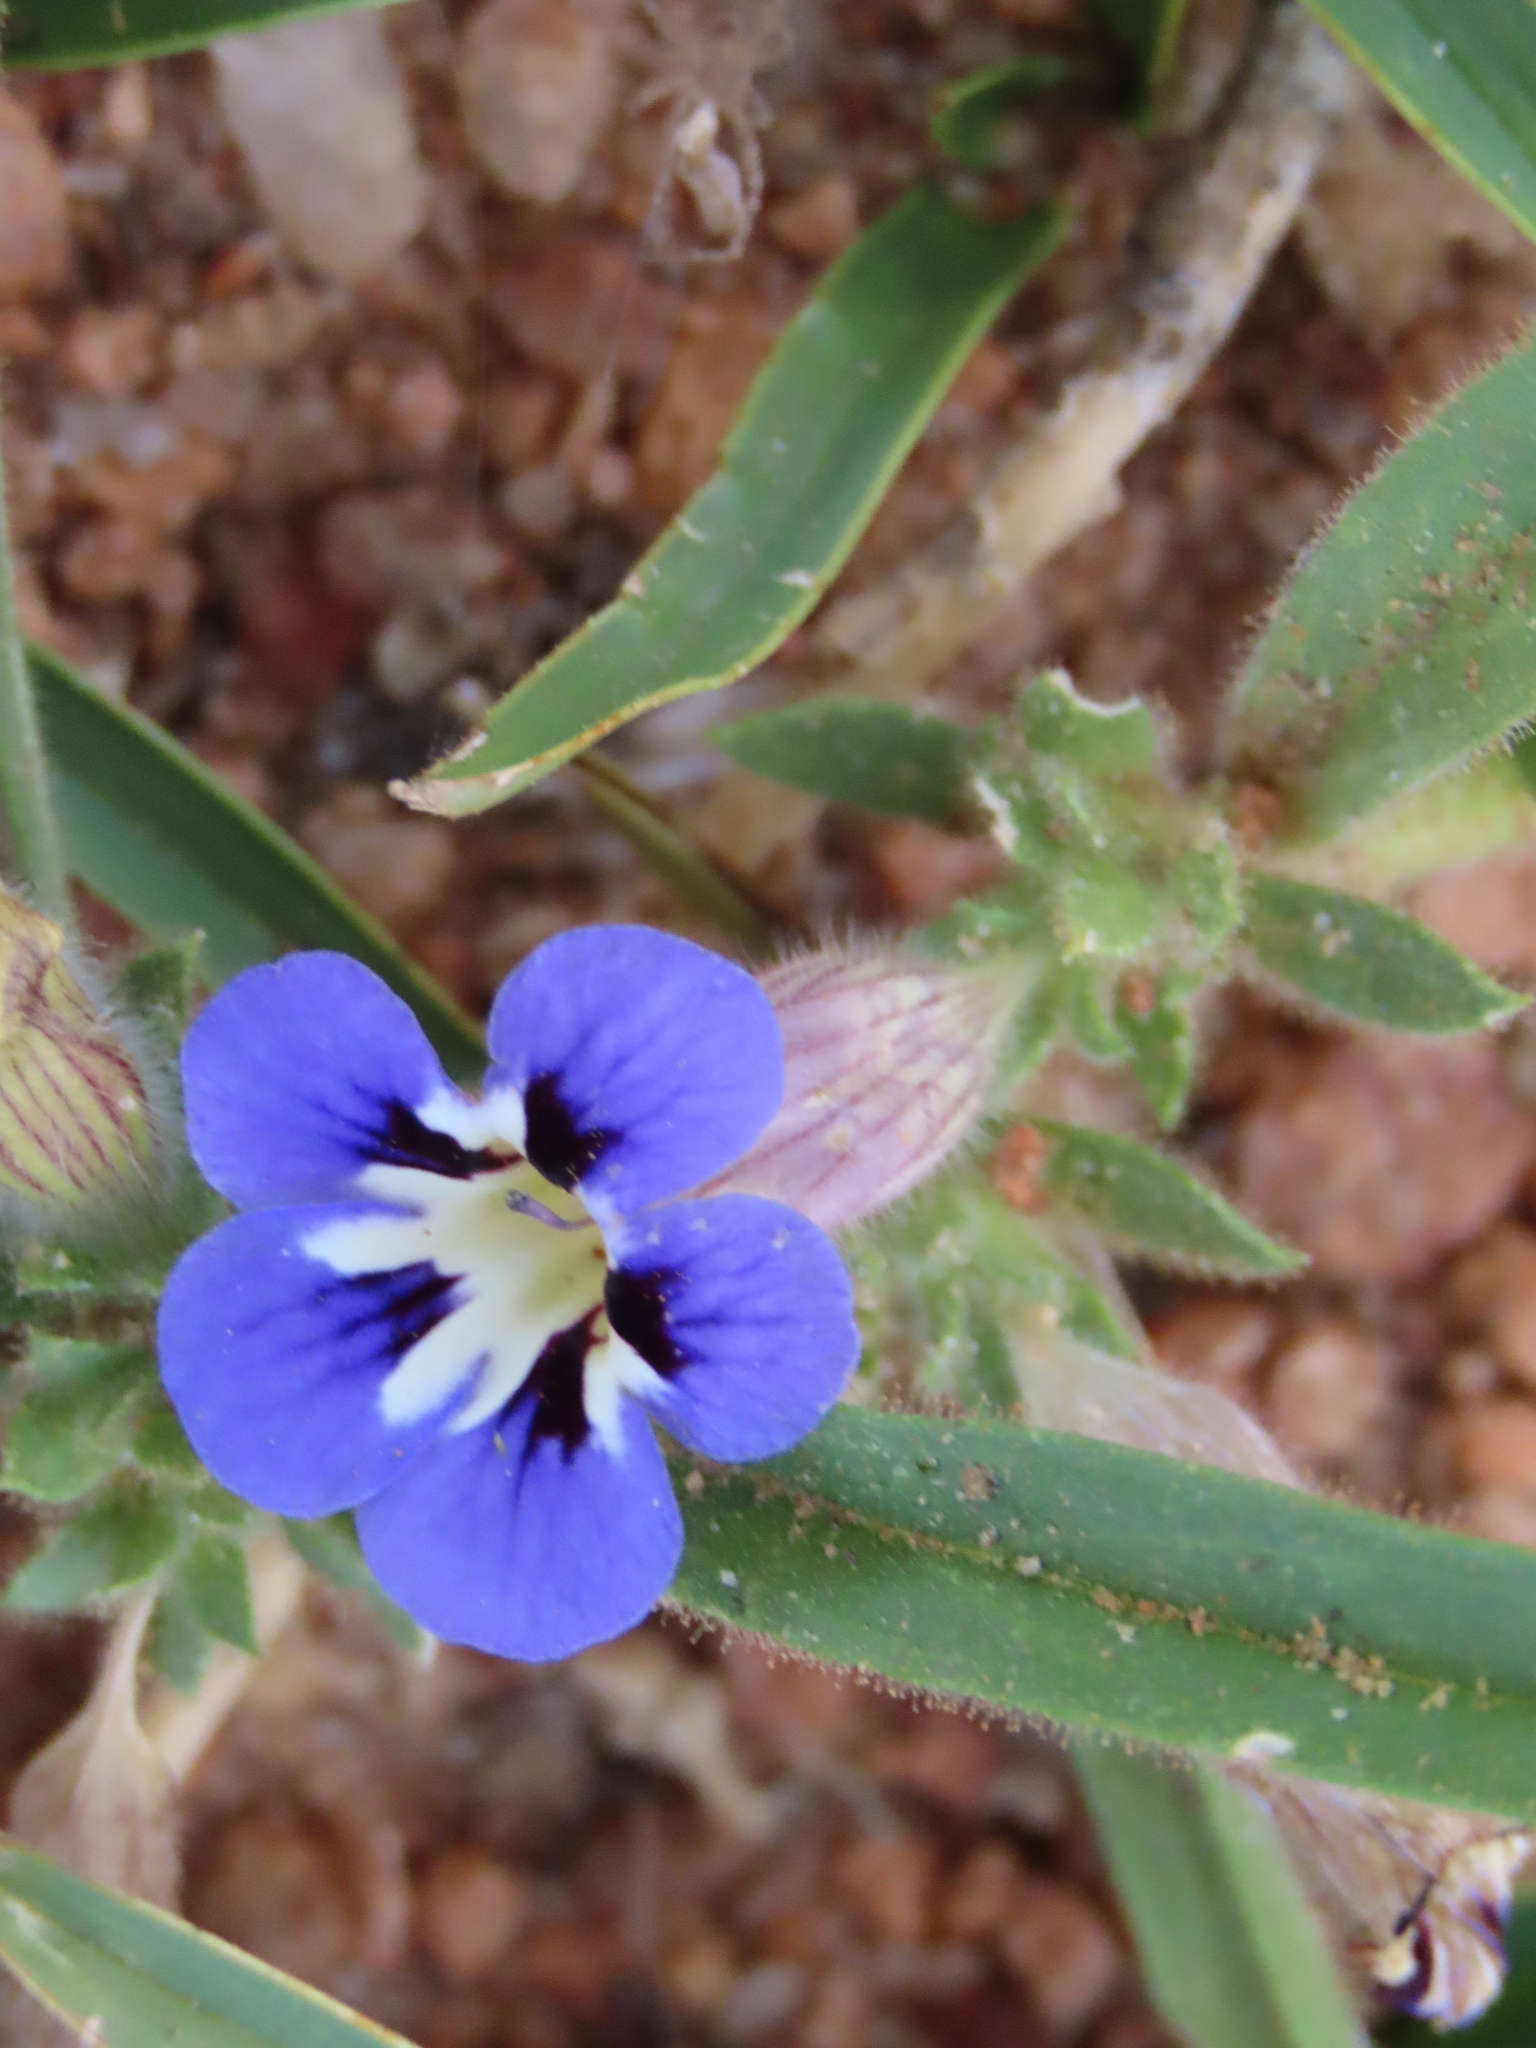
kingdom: Plantae
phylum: Tracheophyta
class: Magnoliopsida
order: Lamiales
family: Scrophulariaceae
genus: Aptosimum
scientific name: Aptosimum arenarium
